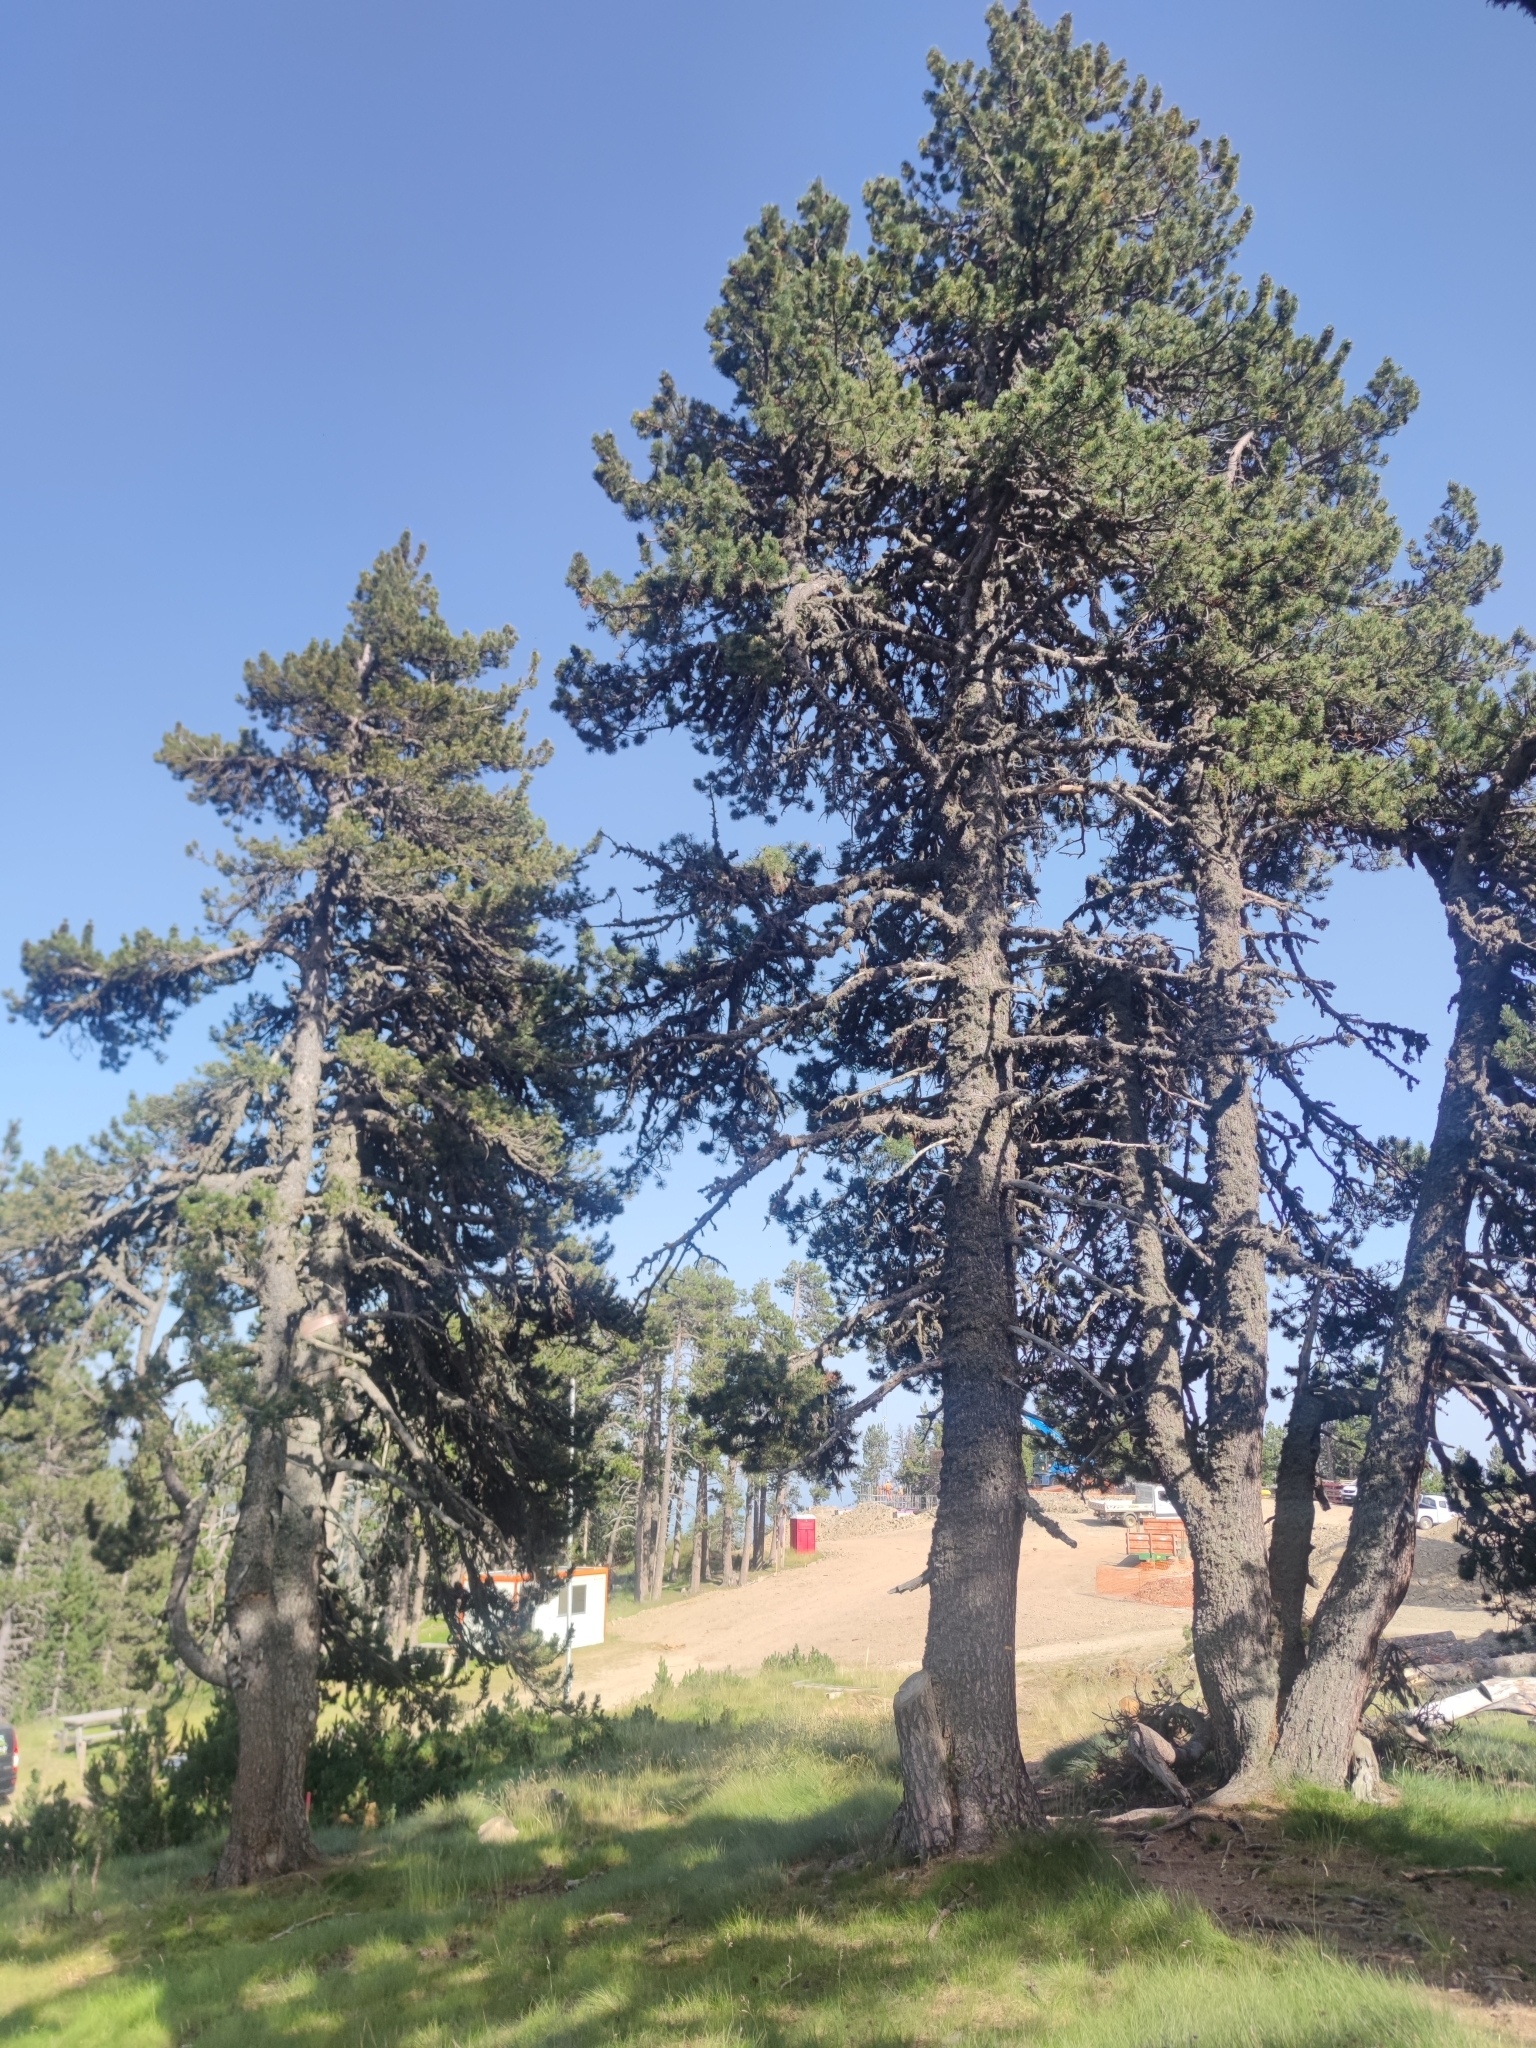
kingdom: Plantae
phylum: Tracheophyta
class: Pinopsida
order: Pinales
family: Pinaceae
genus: Pinus
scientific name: Pinus uncinata
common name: Mountain pine
